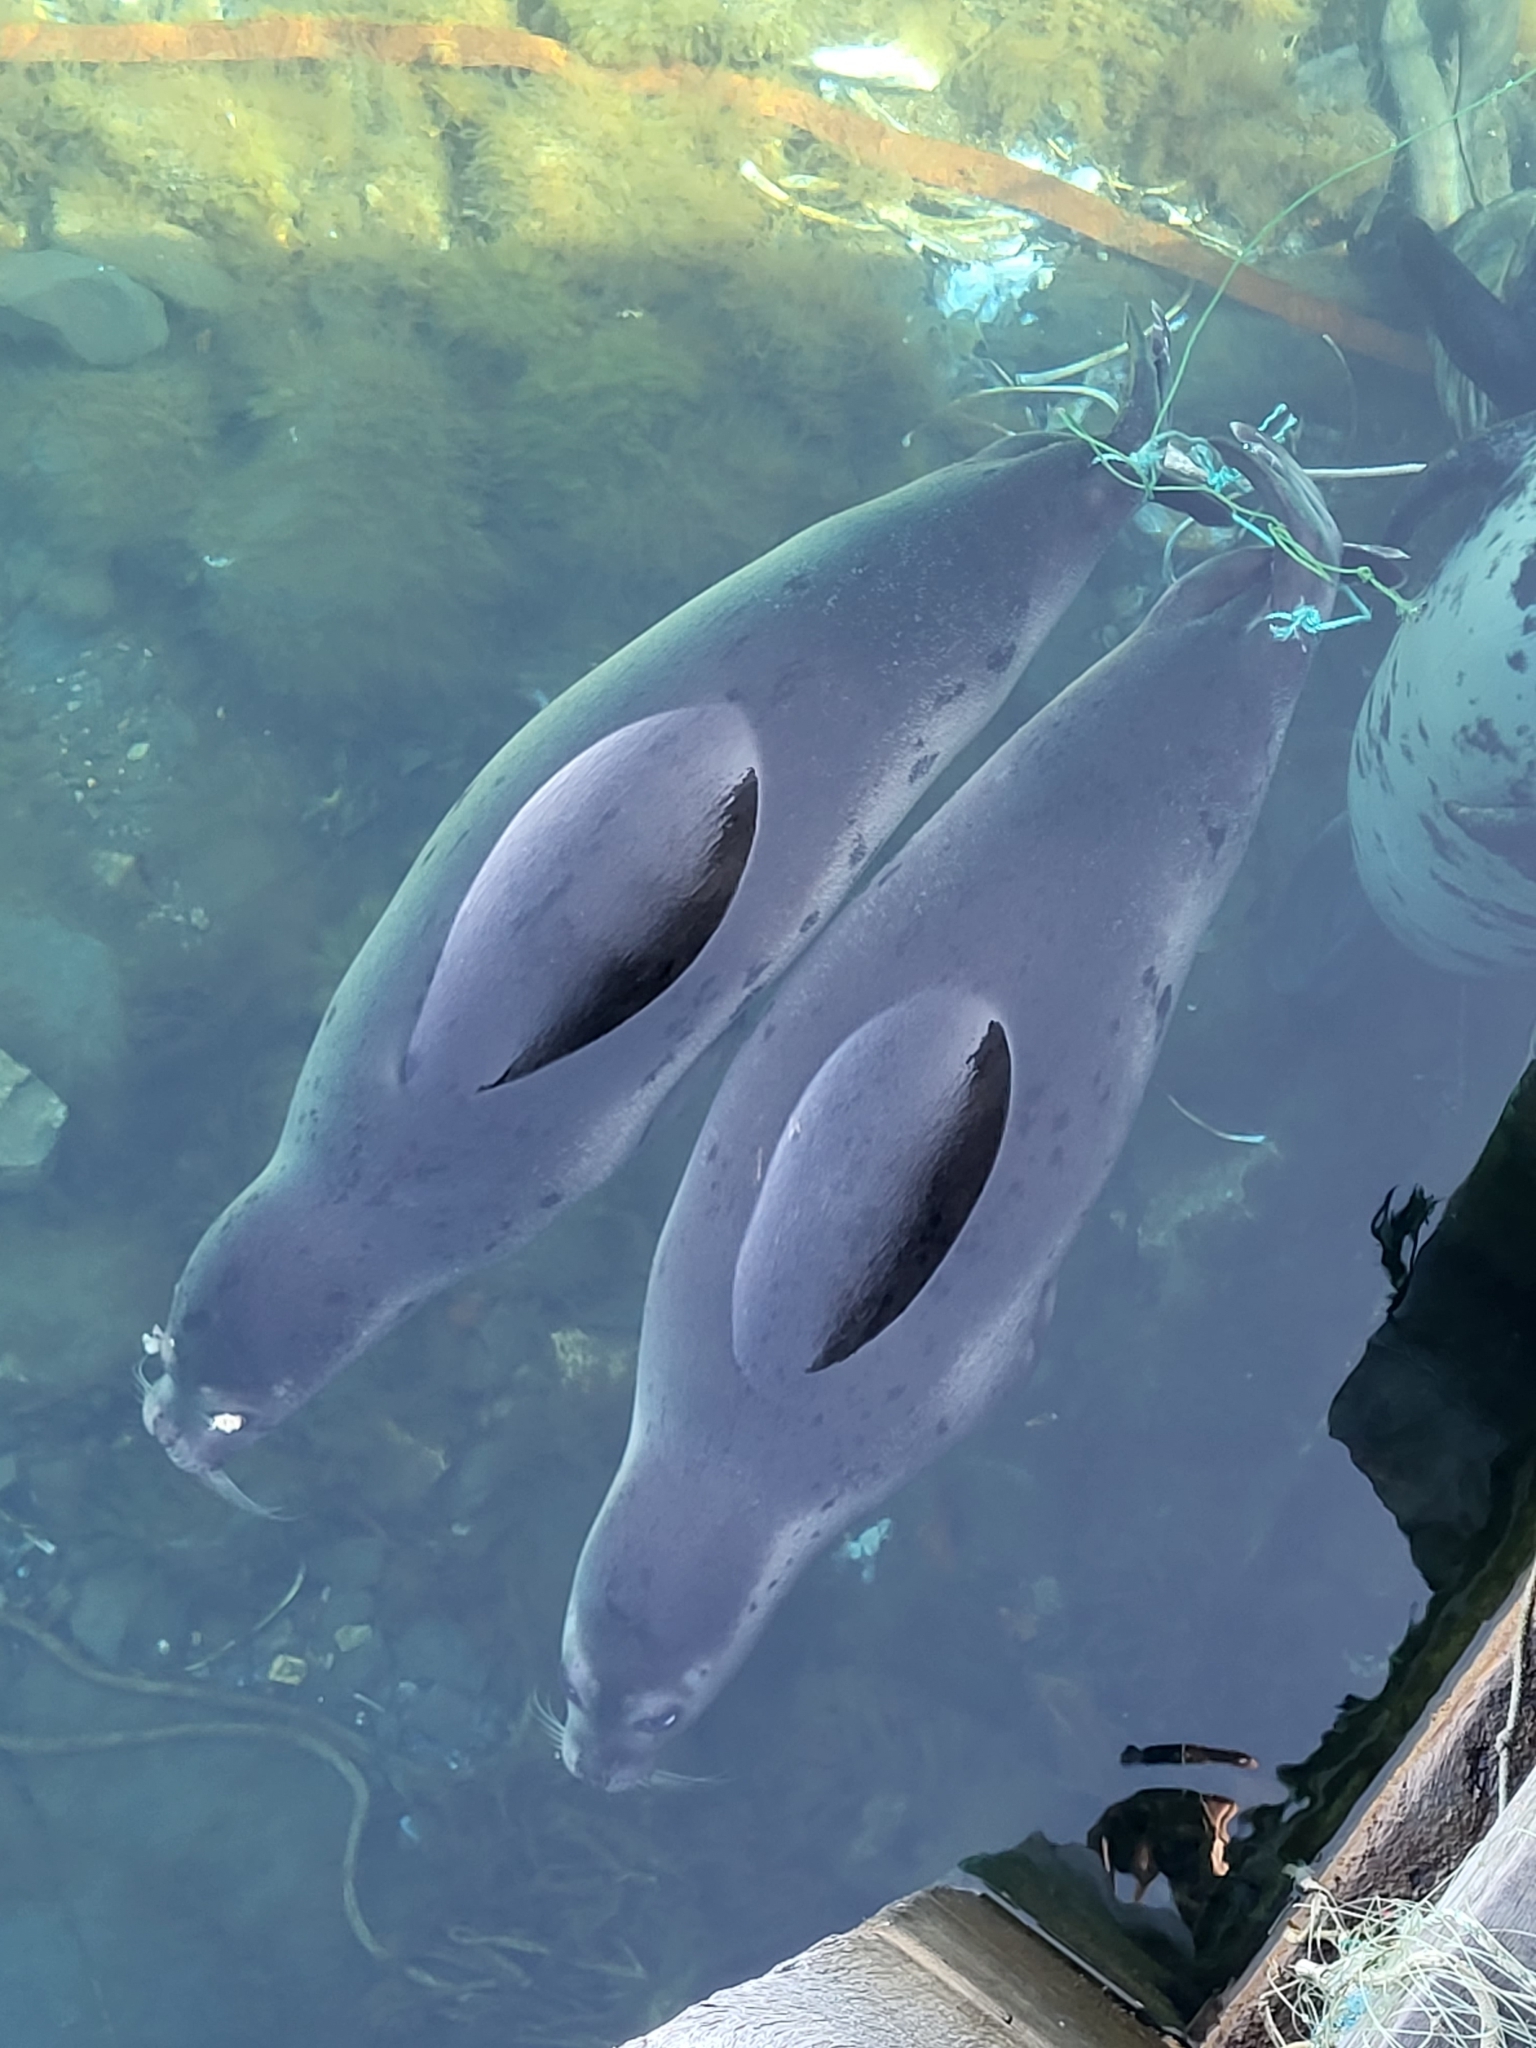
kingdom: Animalia
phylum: Chordata
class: Mammalia
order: Carnivora
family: Phocidae
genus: Pagophilus
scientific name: Pagophilus groenlandicus
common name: Harp seal
